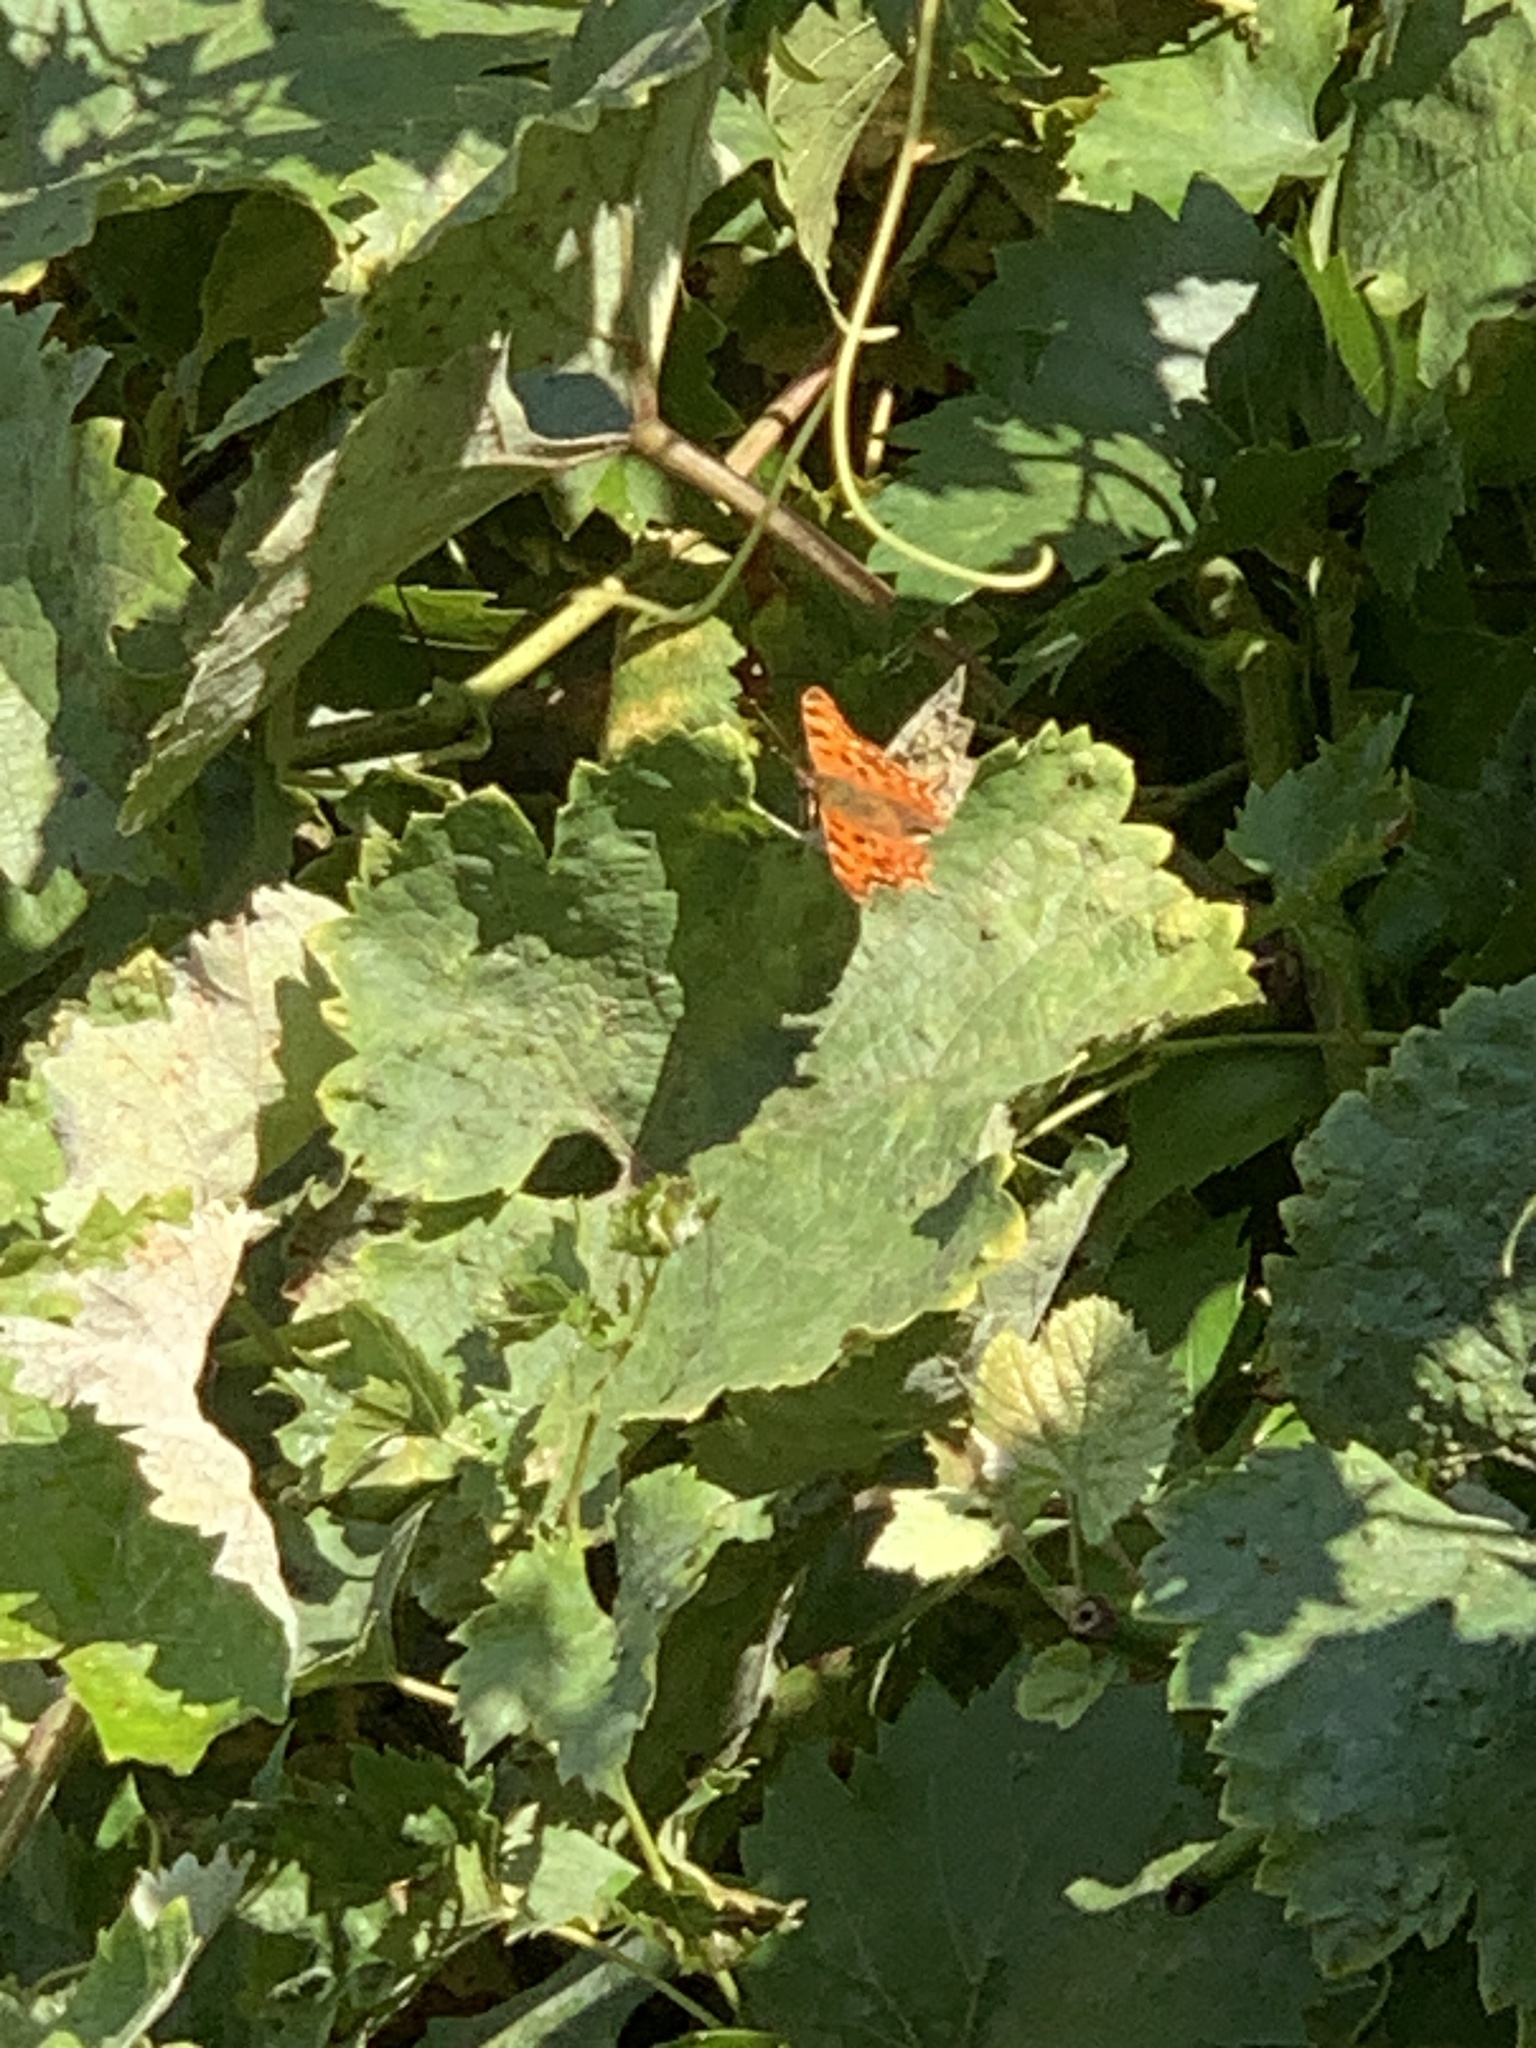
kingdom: Animalia
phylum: Arthropoda
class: Insecta
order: Lepidoptera
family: Nymphalidae
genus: Polygonia
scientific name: Polygonia c-album
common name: Comma
